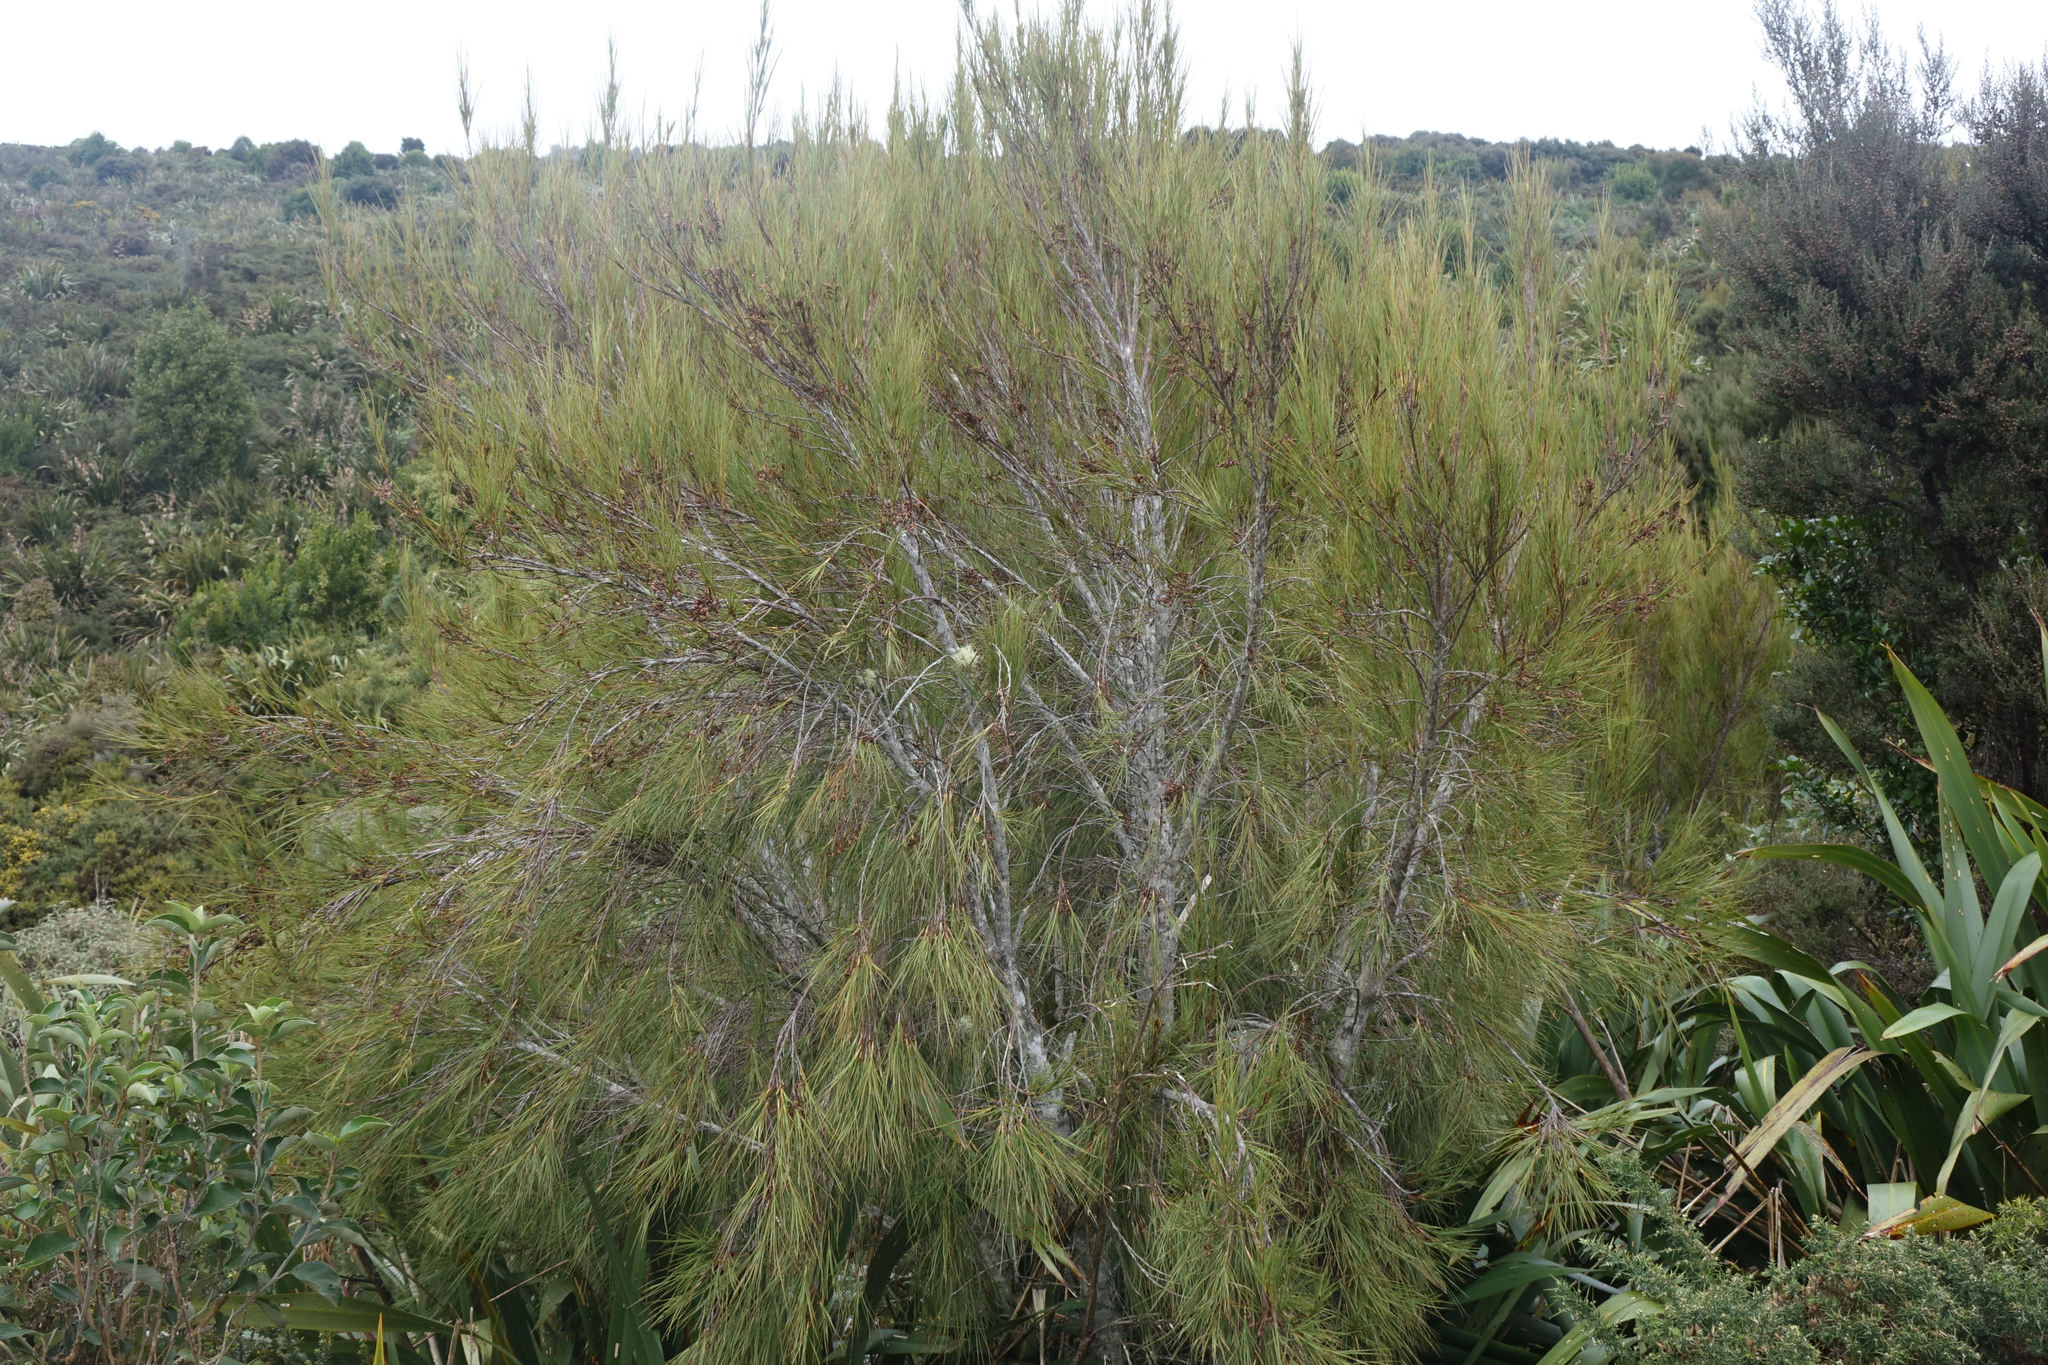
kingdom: Plantae
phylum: Tracheophyta
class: Magnoliopsida
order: Ericales
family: Ericaceae
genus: Dracophyllum
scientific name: Dracophyllum longifolium
